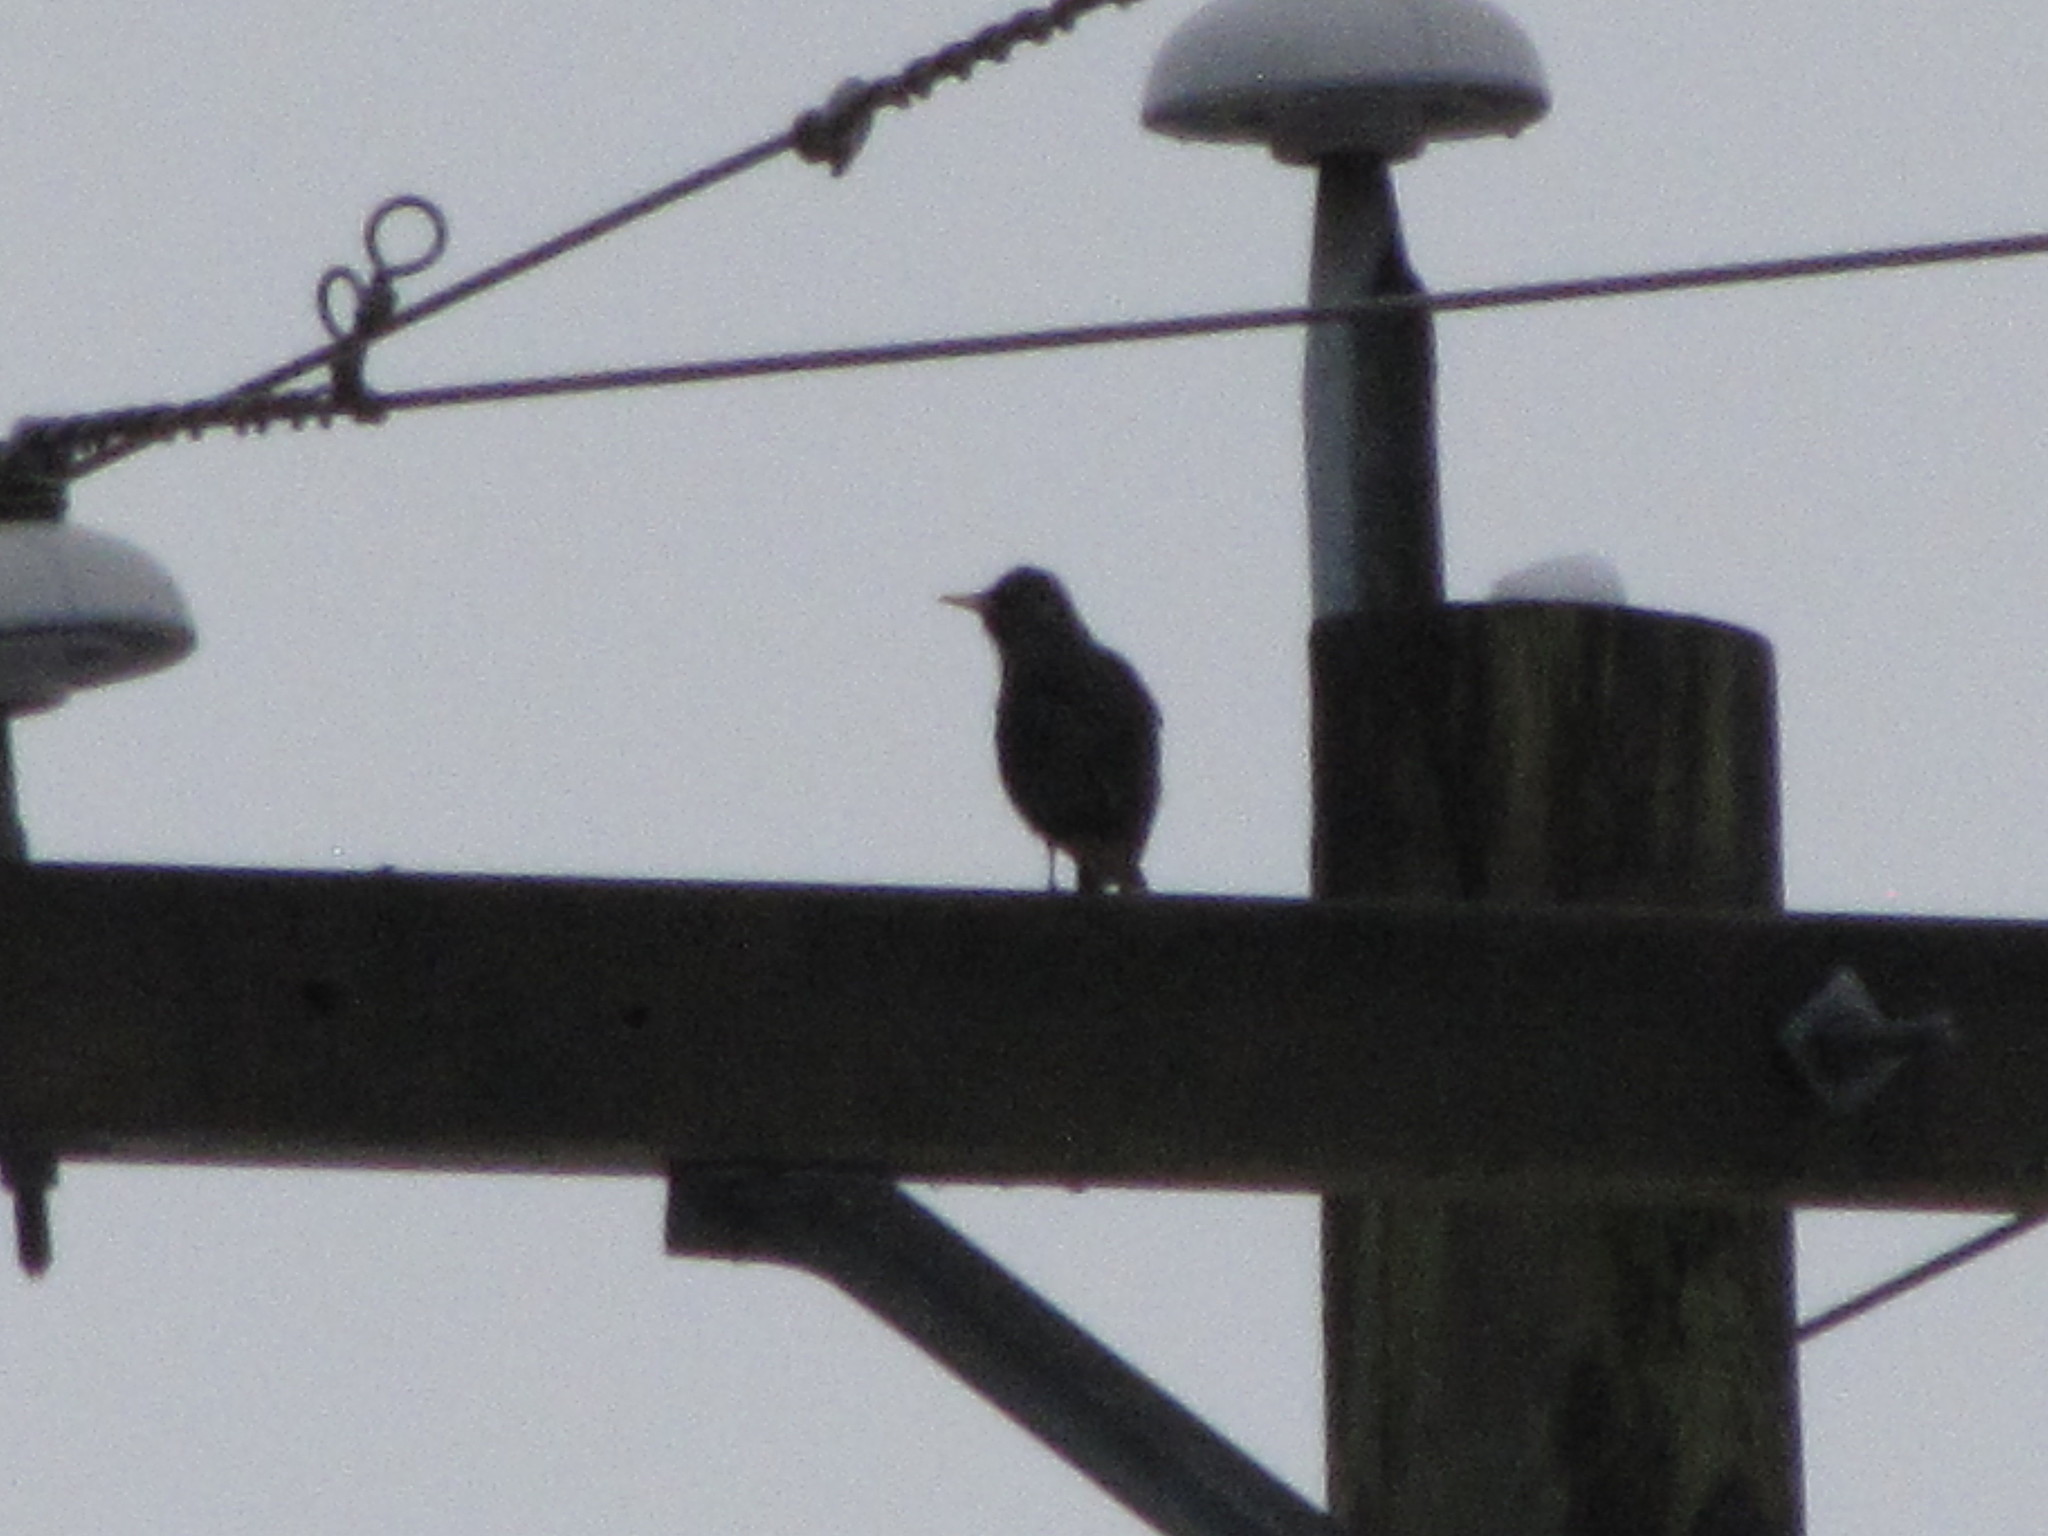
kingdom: Animalia
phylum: Chordata
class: Aves
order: Passeriformes
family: Sturnidae
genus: Sturnus
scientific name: Sturnus vulgaris
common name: Common starling
